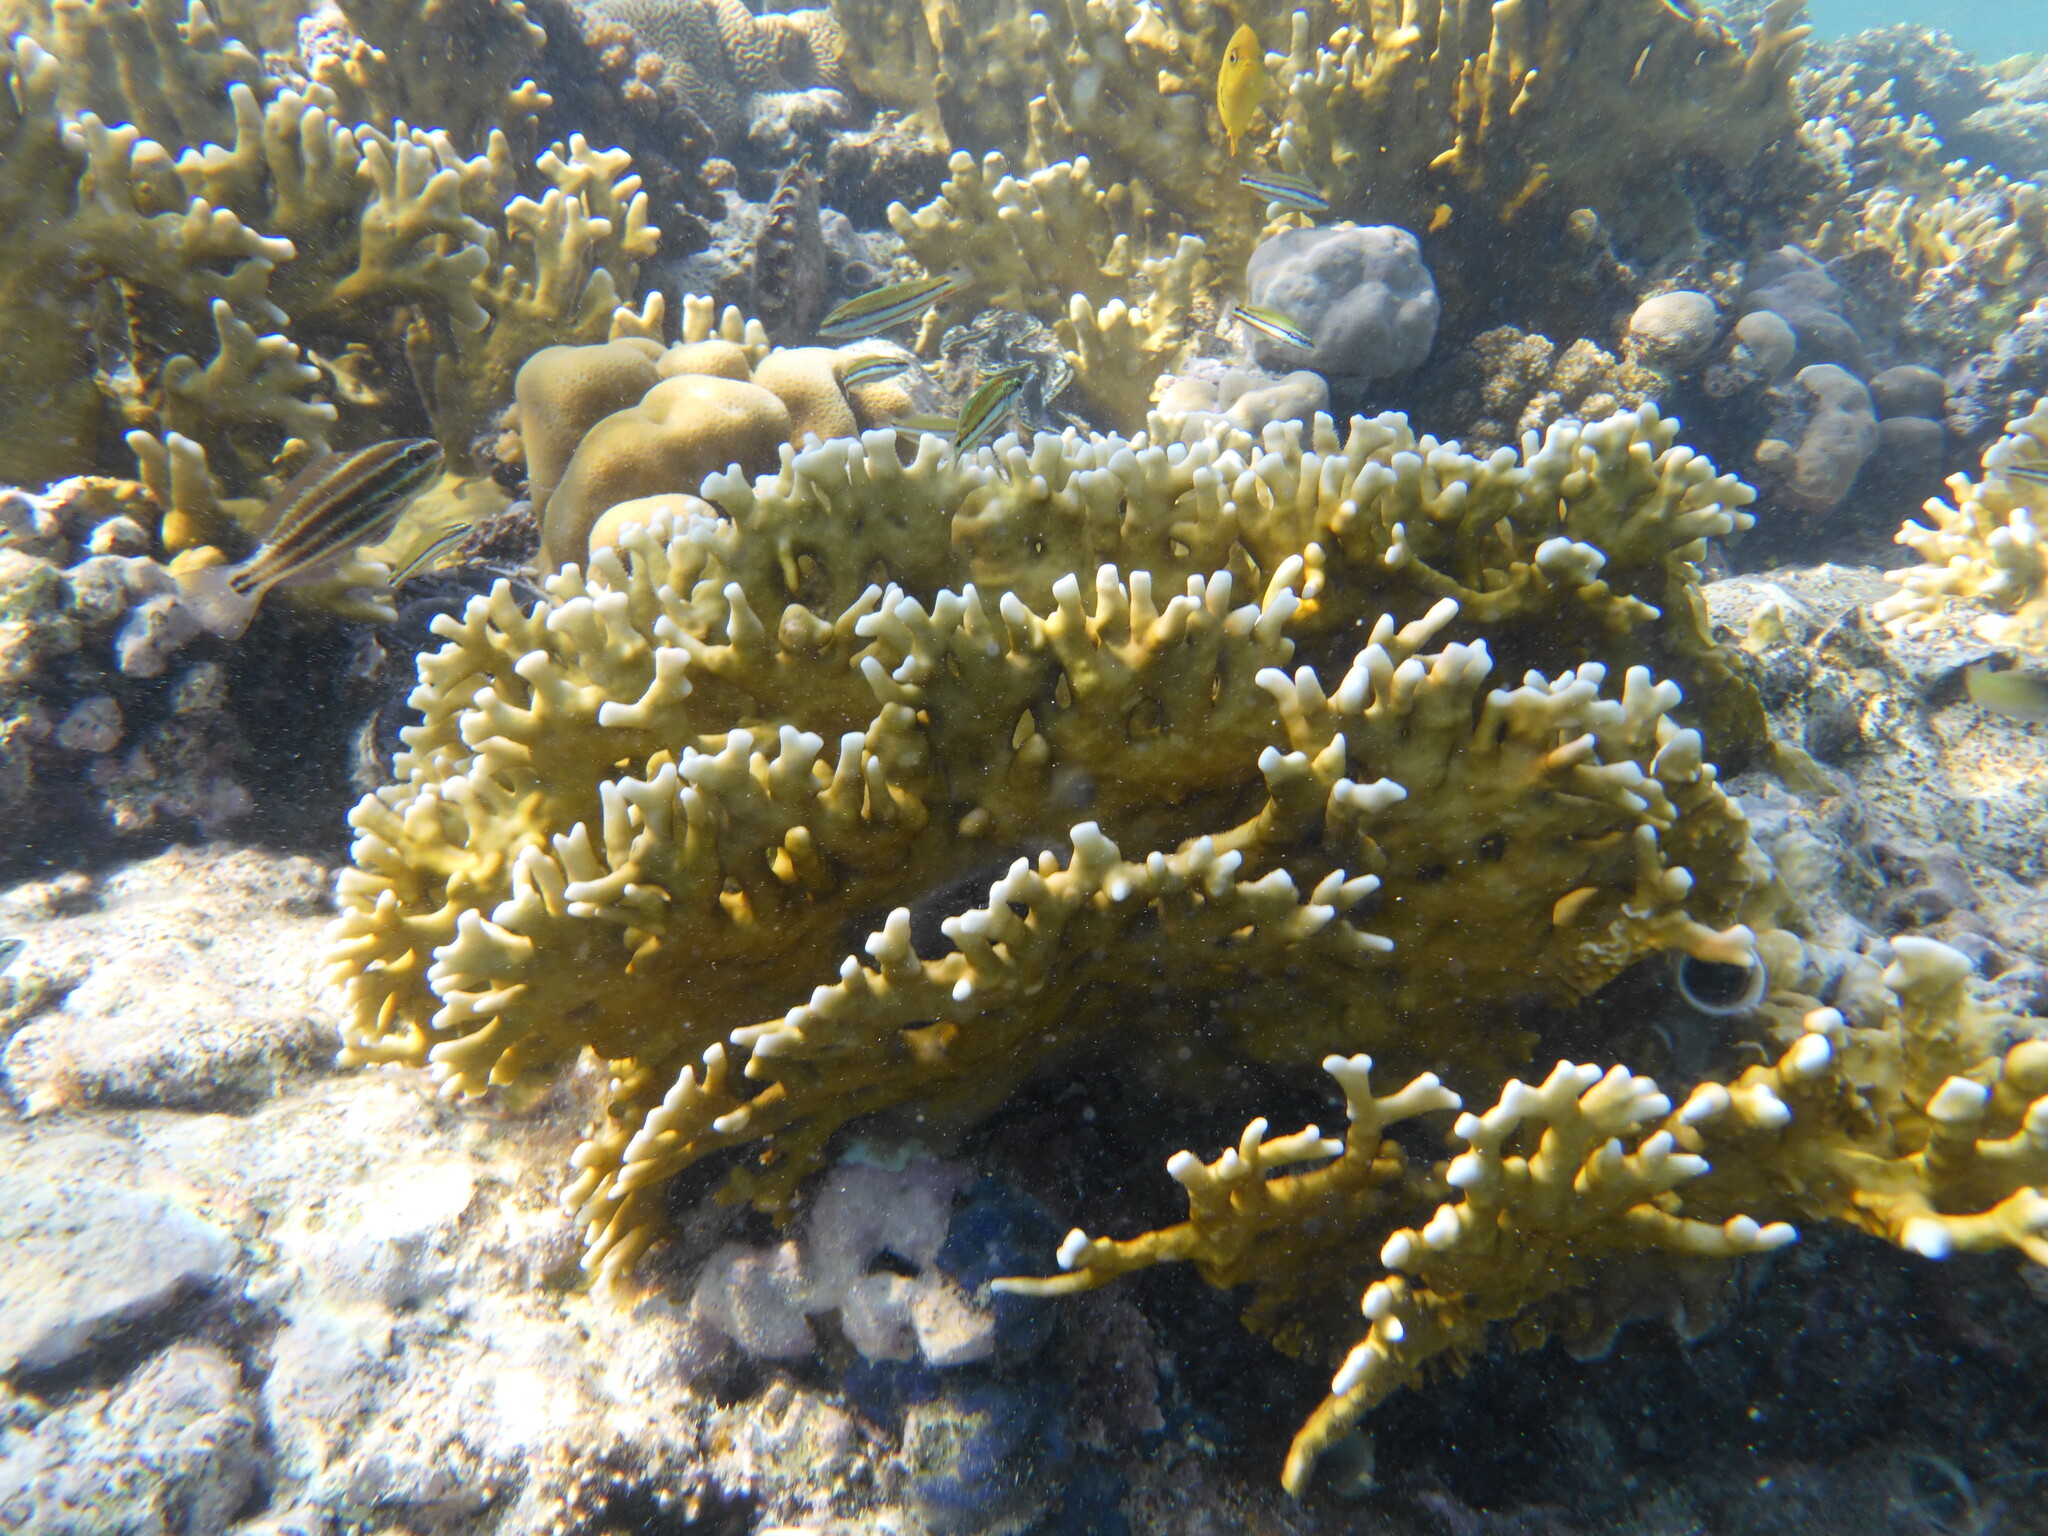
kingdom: Animalia
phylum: Cnidaria
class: Hydrozoa
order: Anthoathecata
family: Milleporidae
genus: Millepora
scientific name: Millepora dichotoma
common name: Ramified fire coral
